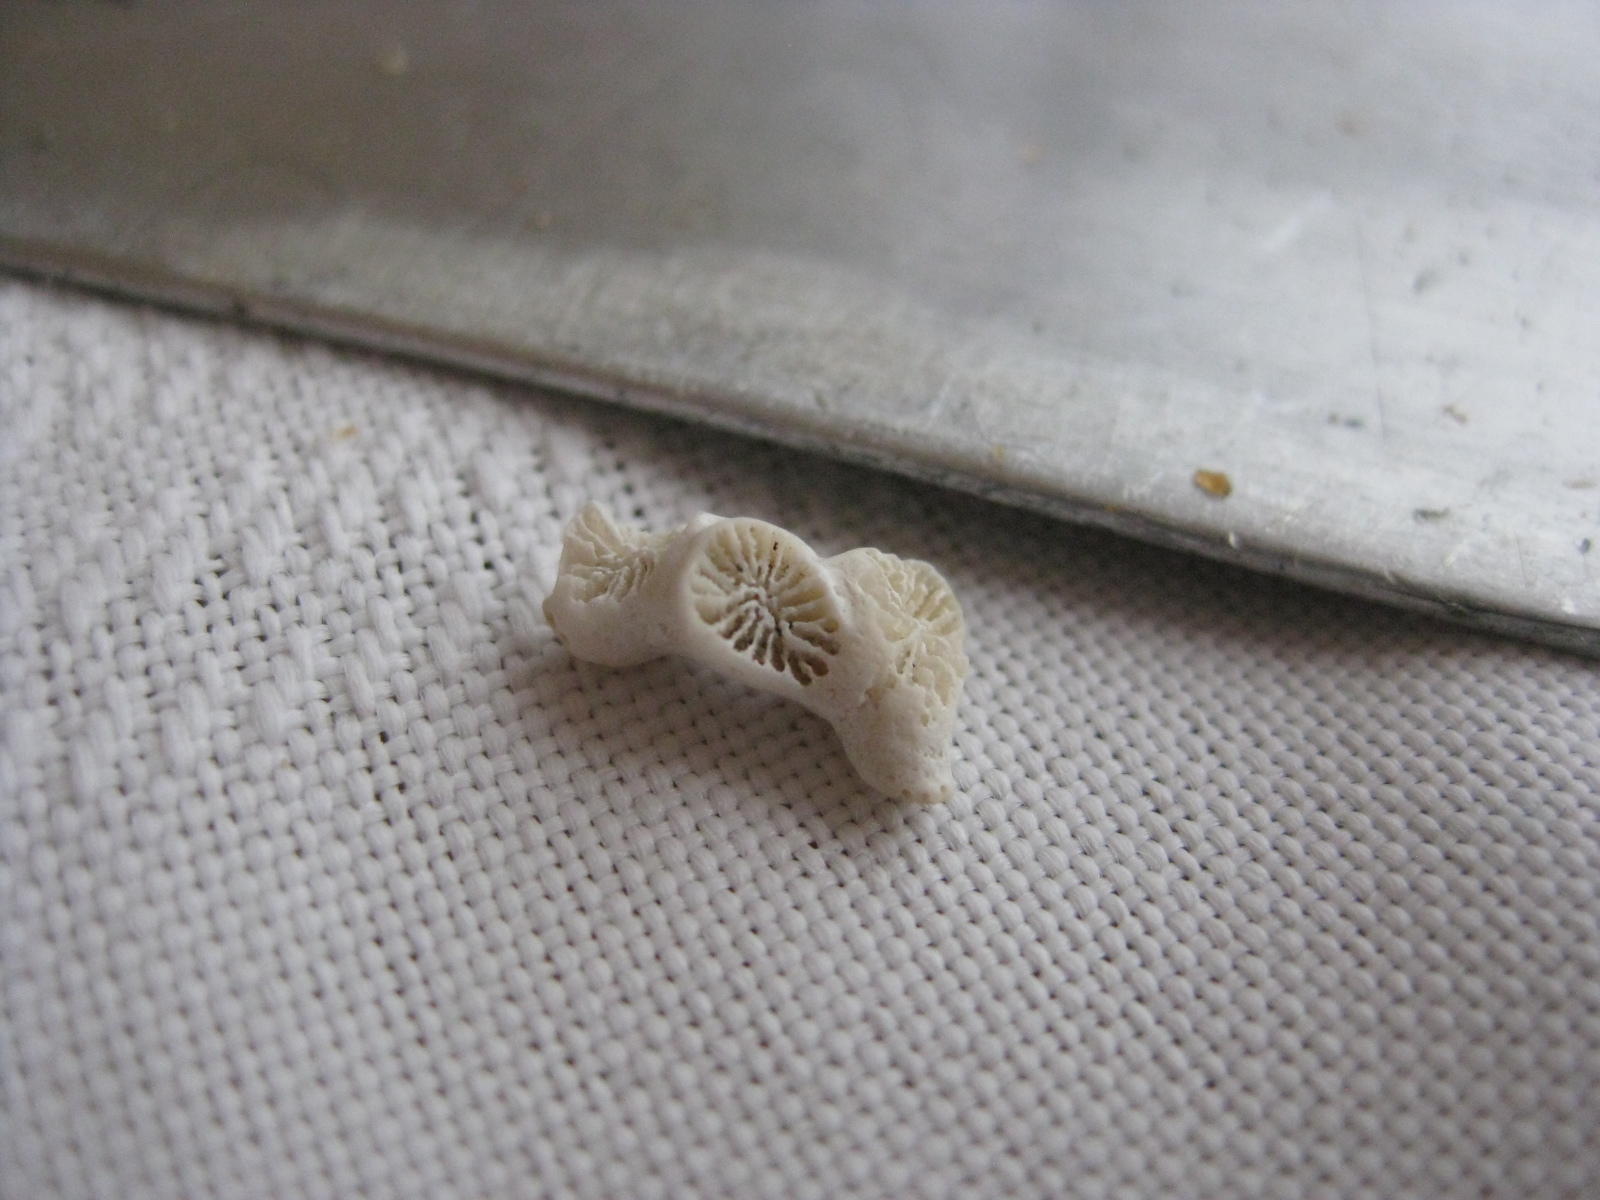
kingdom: Animalia
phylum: Cnidaria
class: Anthozoa
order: Scleractinia
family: Rhizangiidae
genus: Culicia
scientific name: Culicia rubeola
